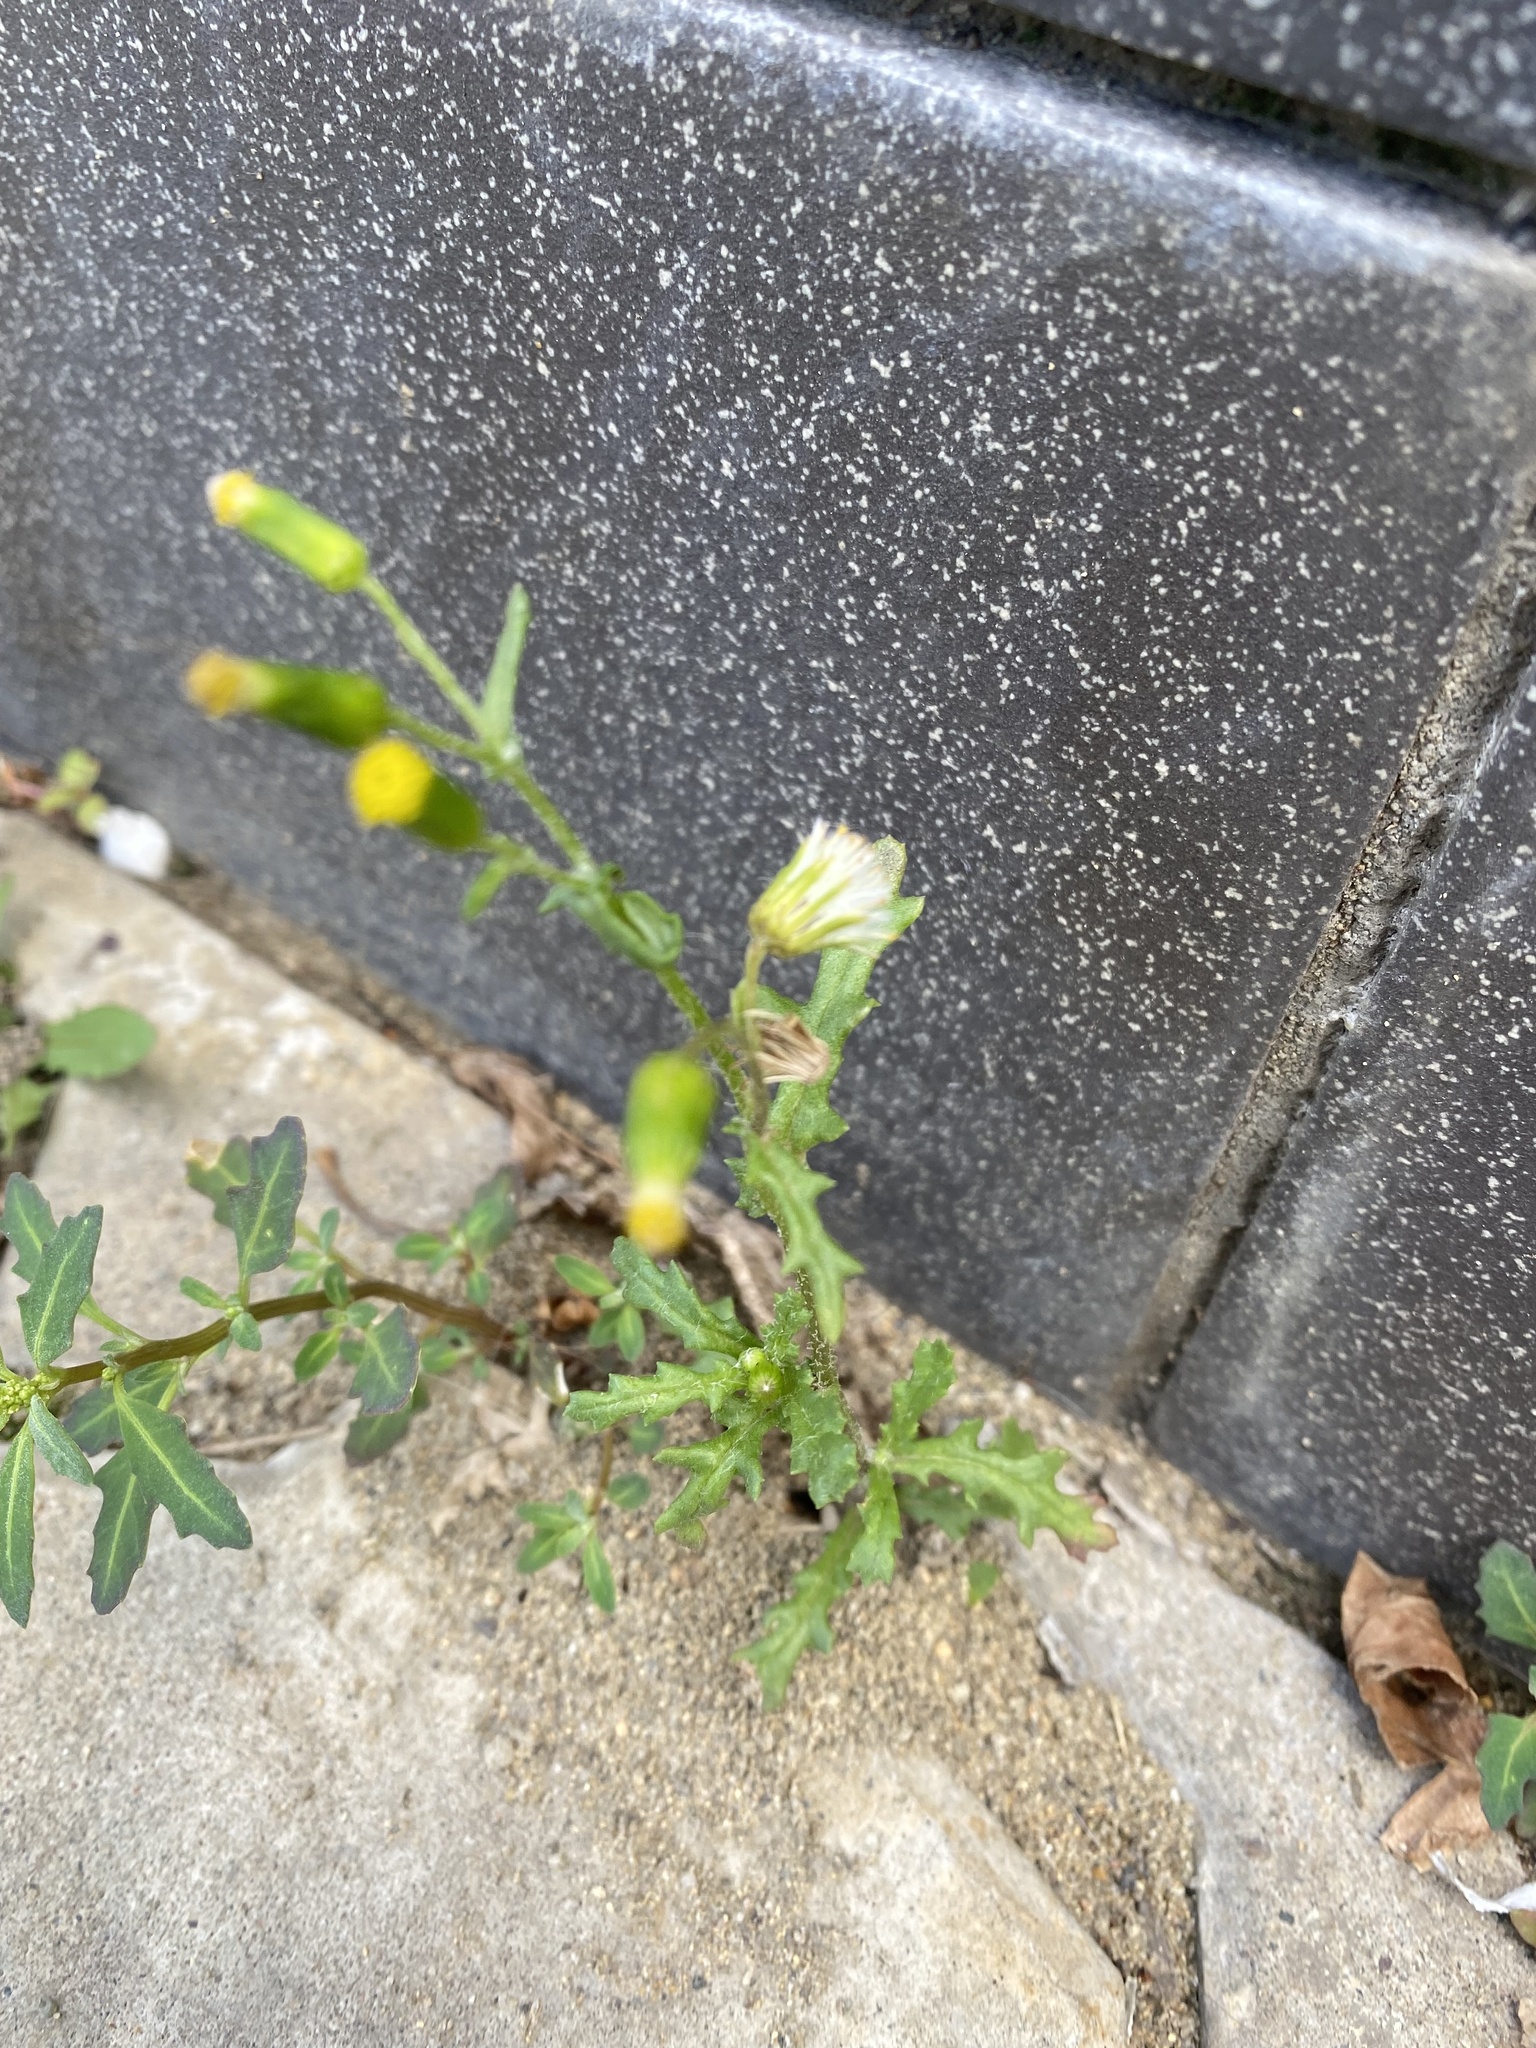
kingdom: Plantae
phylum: Tracheophyta
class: Magnoliopsida
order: Asterales
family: Asteraceae
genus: Senecio
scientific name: Senecio vulgaris
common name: Old-man-in-the-spring
